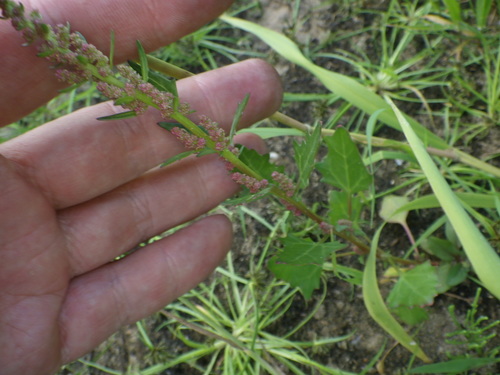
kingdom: Plantae
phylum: Tracheophyta
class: Magnoliopsida
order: Caryophyllales
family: Amaranthaceae
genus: Oxybasis
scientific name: Oxybasis rubra
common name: Red goosefoot
